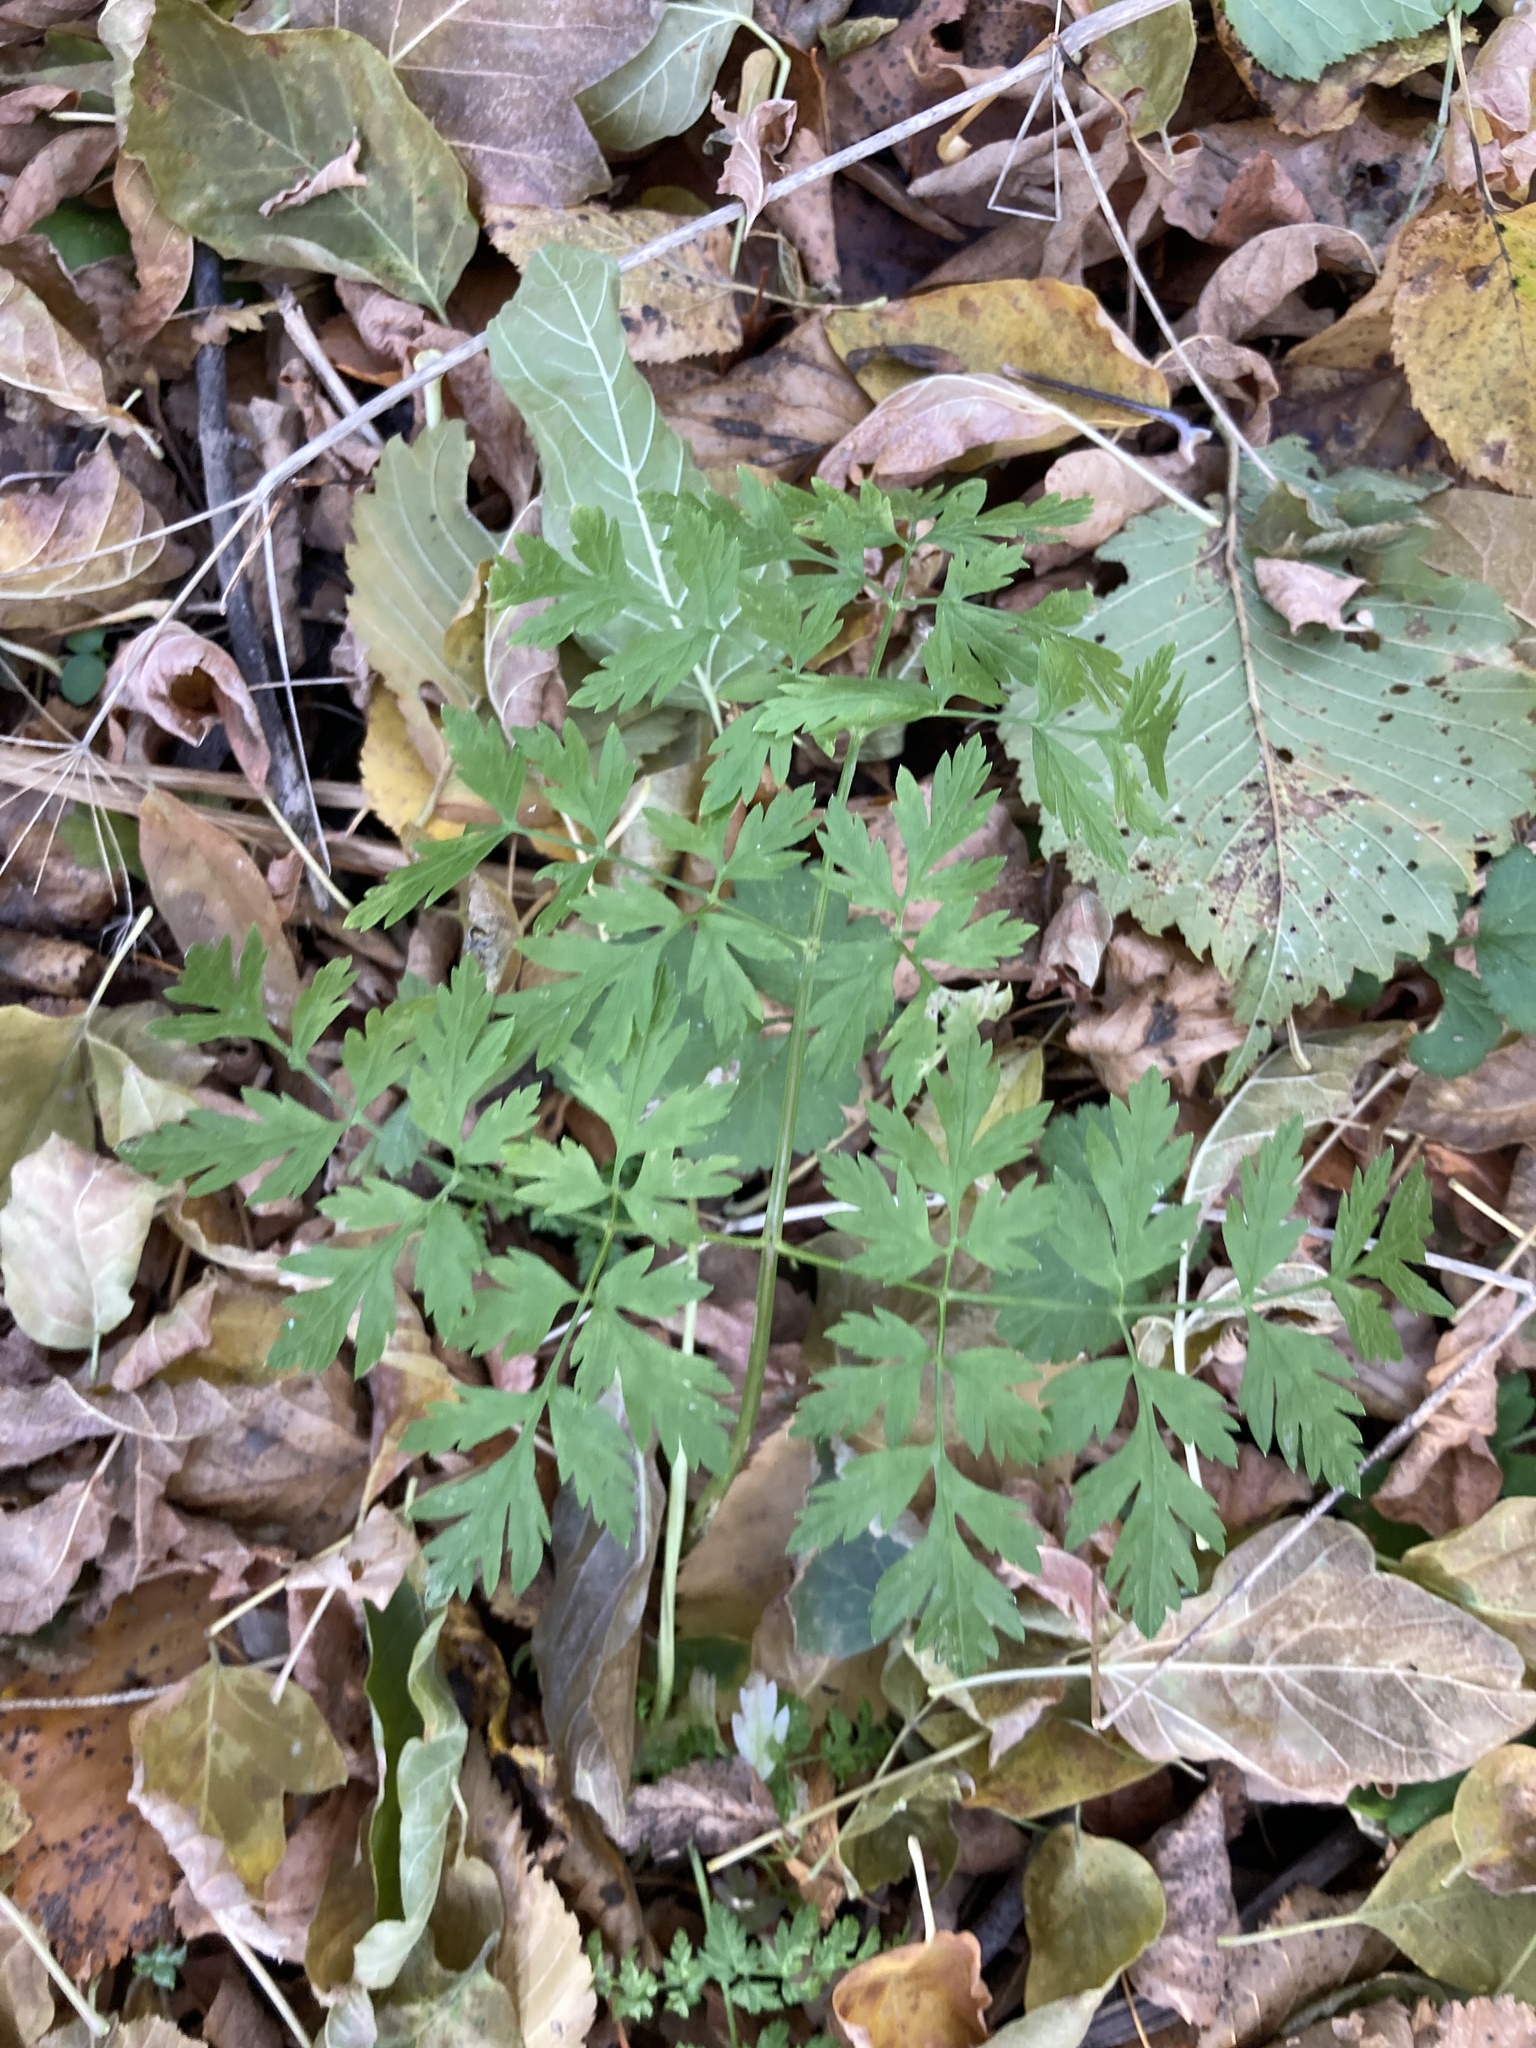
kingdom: Plantae
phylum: Tracheophyta
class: Magnoliopsida
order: Apiales
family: Apiaceae
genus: Anthriscus
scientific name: Anthriscus sylvestris
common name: Cow parsley
